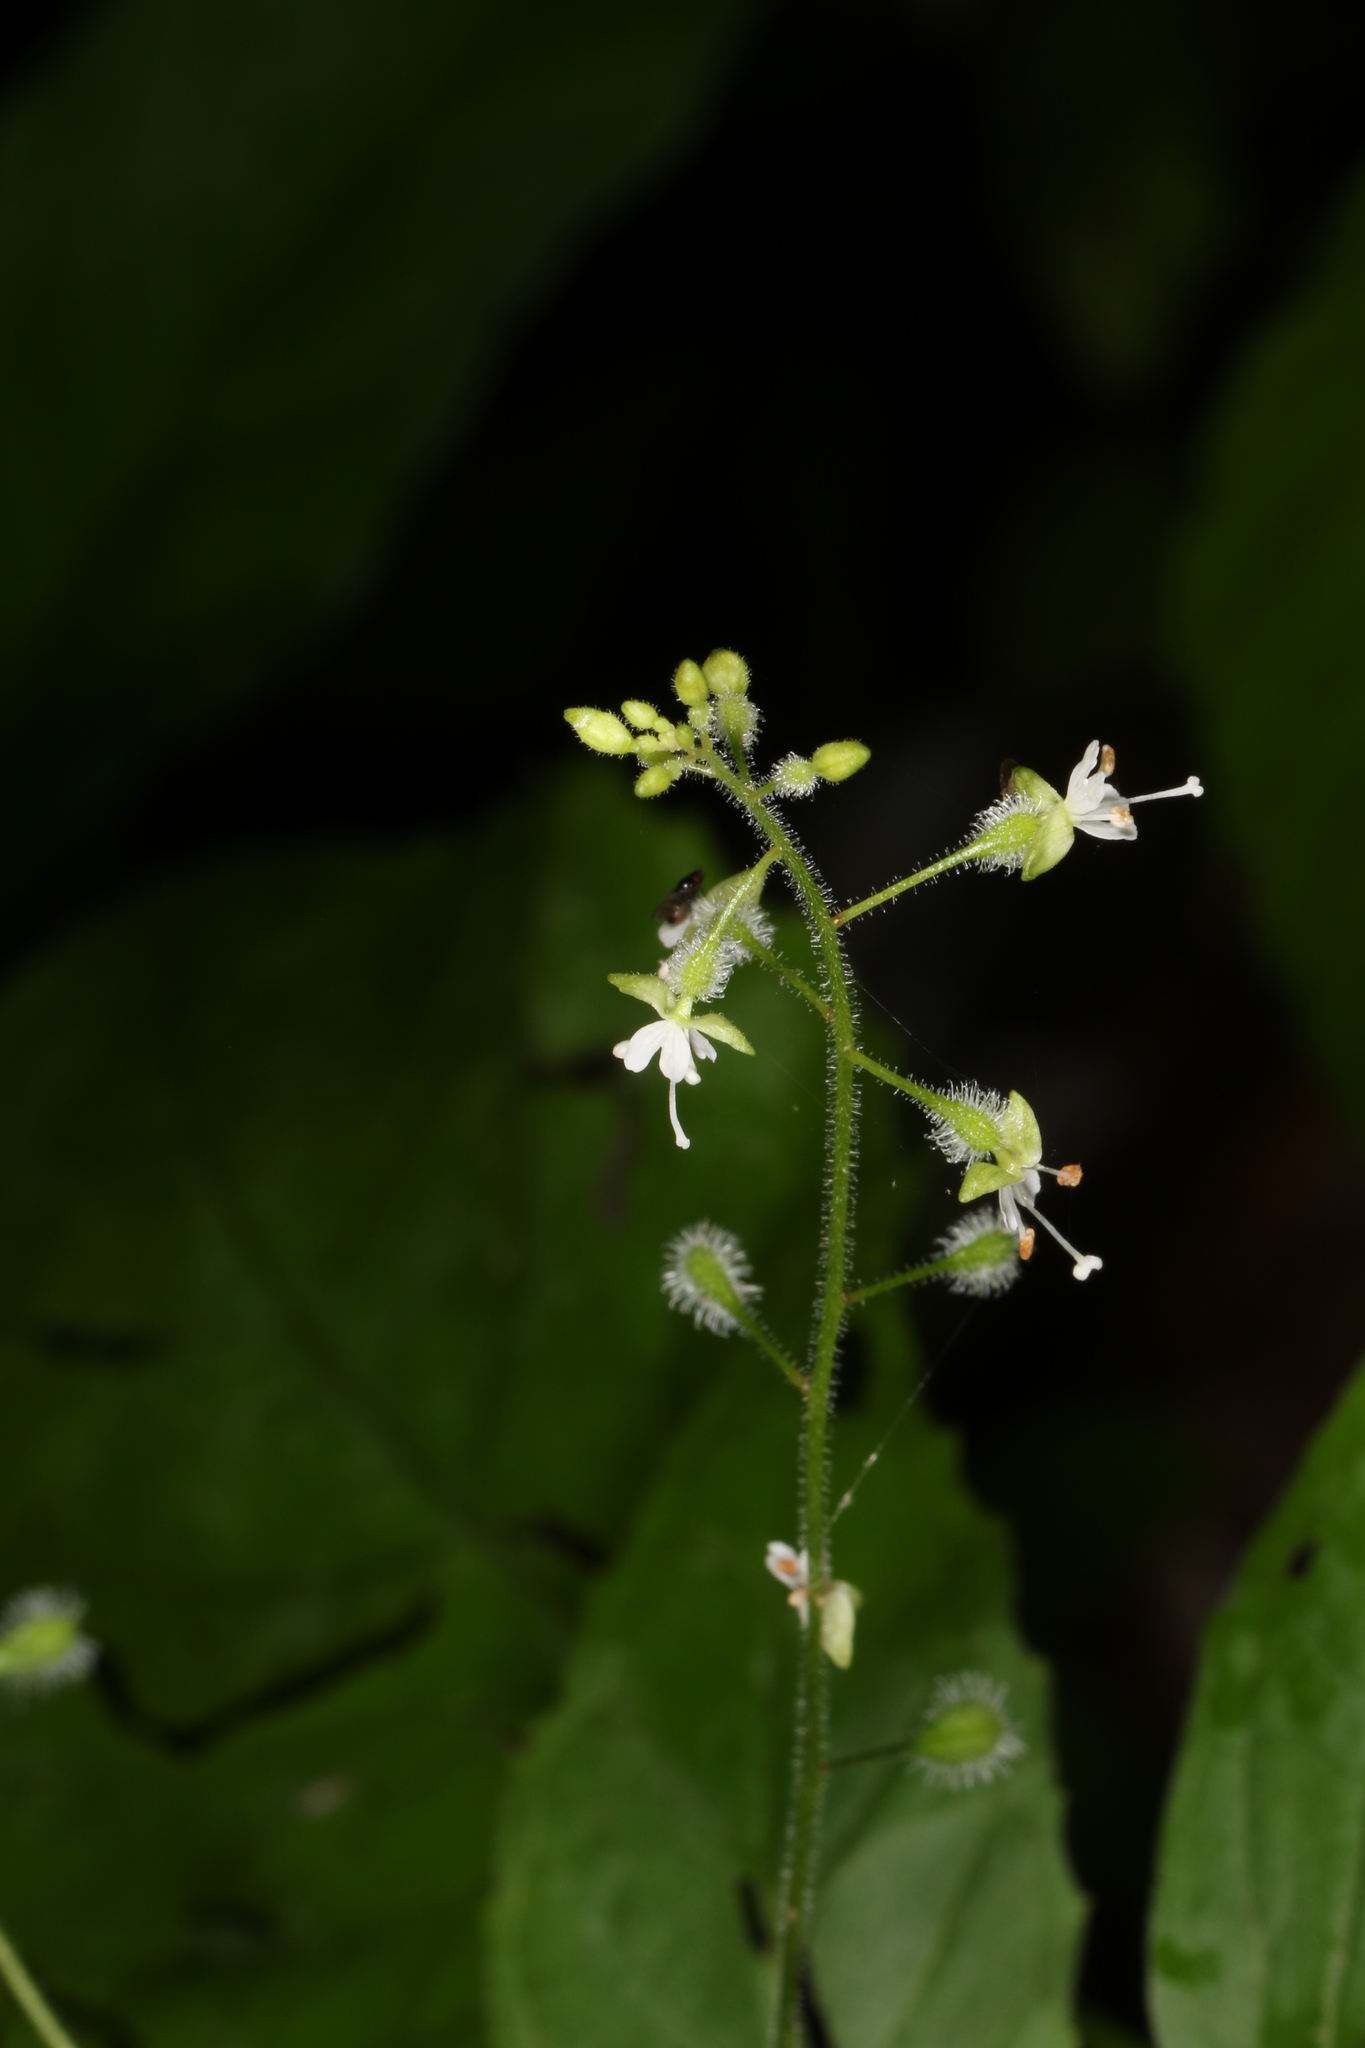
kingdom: Plantae
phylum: Tracheophyta
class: Magnoliopsida
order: Myrtales
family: Onagraceae
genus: Circaea
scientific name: Circaea canadensis
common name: Broad-leaved enchanter's nightshade
